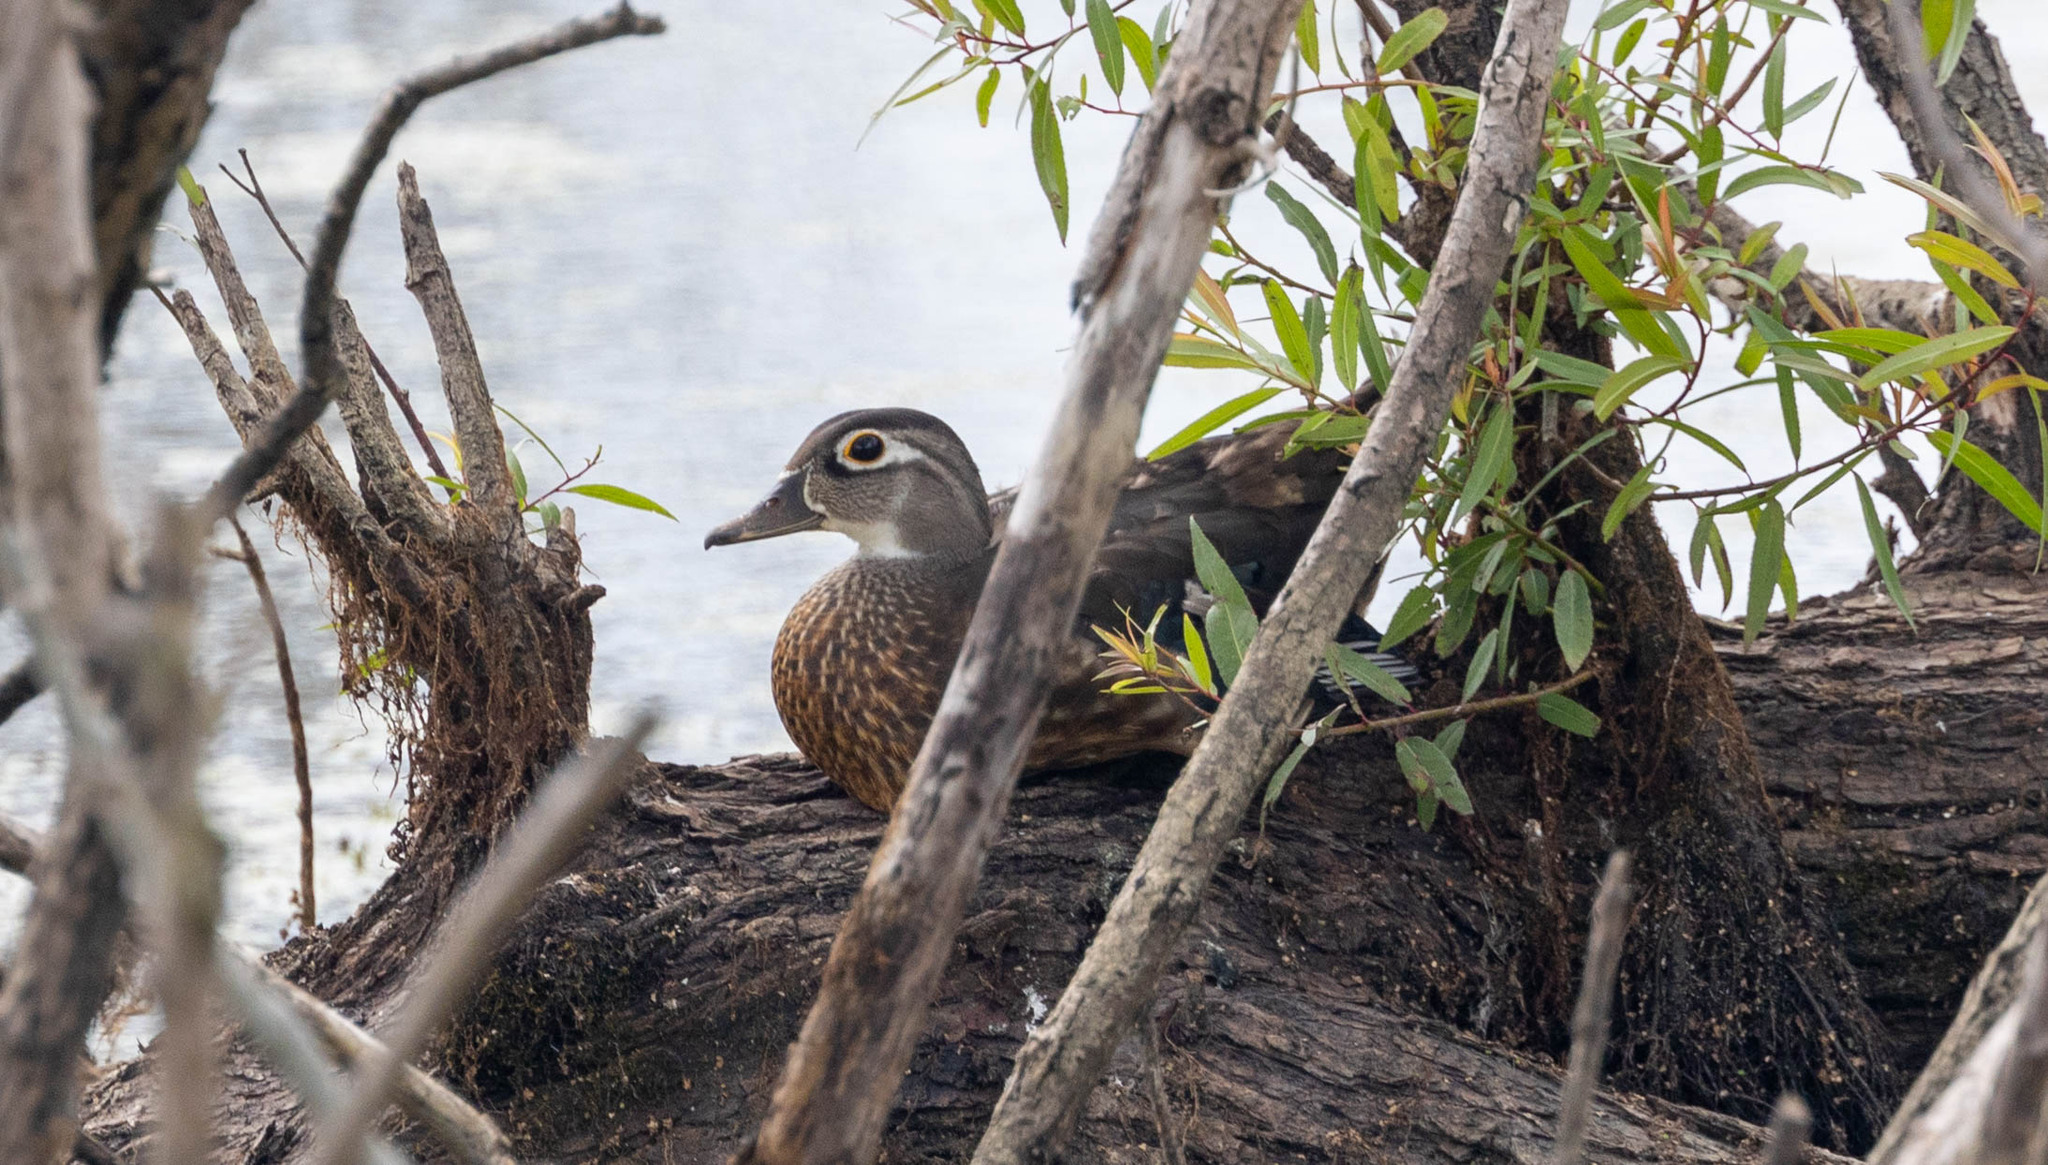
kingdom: Animalia
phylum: Chordata
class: Aves
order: Anseriformes
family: Anatidae
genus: Aix
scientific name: Aix sponsa
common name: Wood duck
